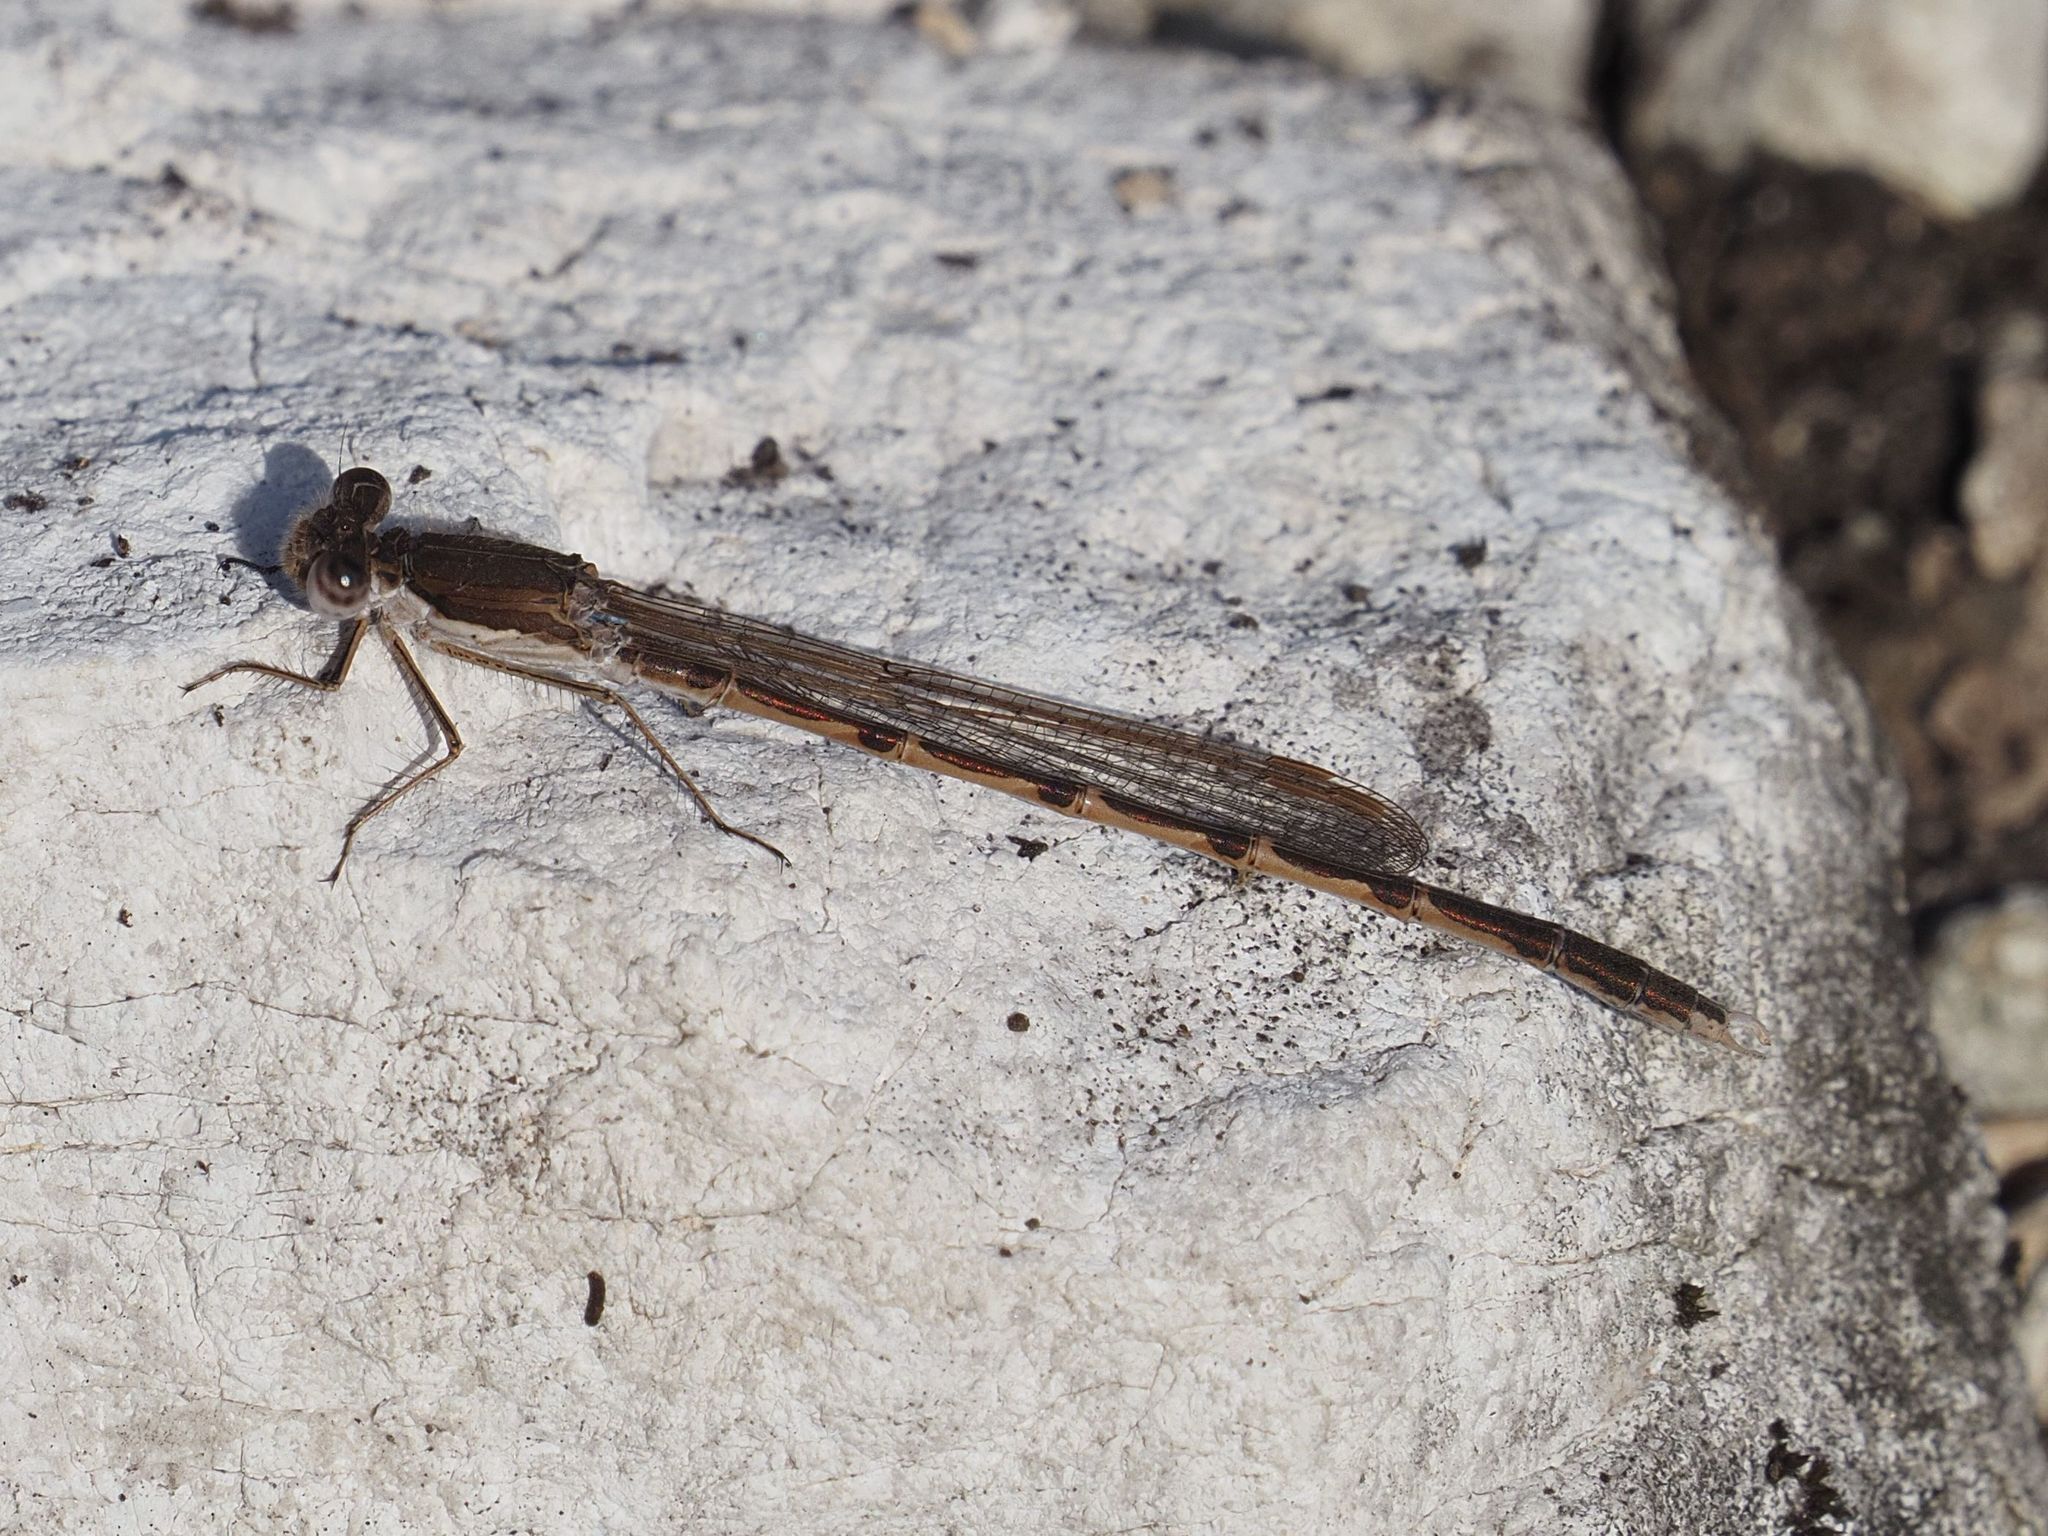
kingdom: Animalia
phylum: Arthropoda
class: Insecta
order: Odonata
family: Lestidae
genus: Sympecma
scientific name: Sympecma fusca
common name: Common winter damsel
